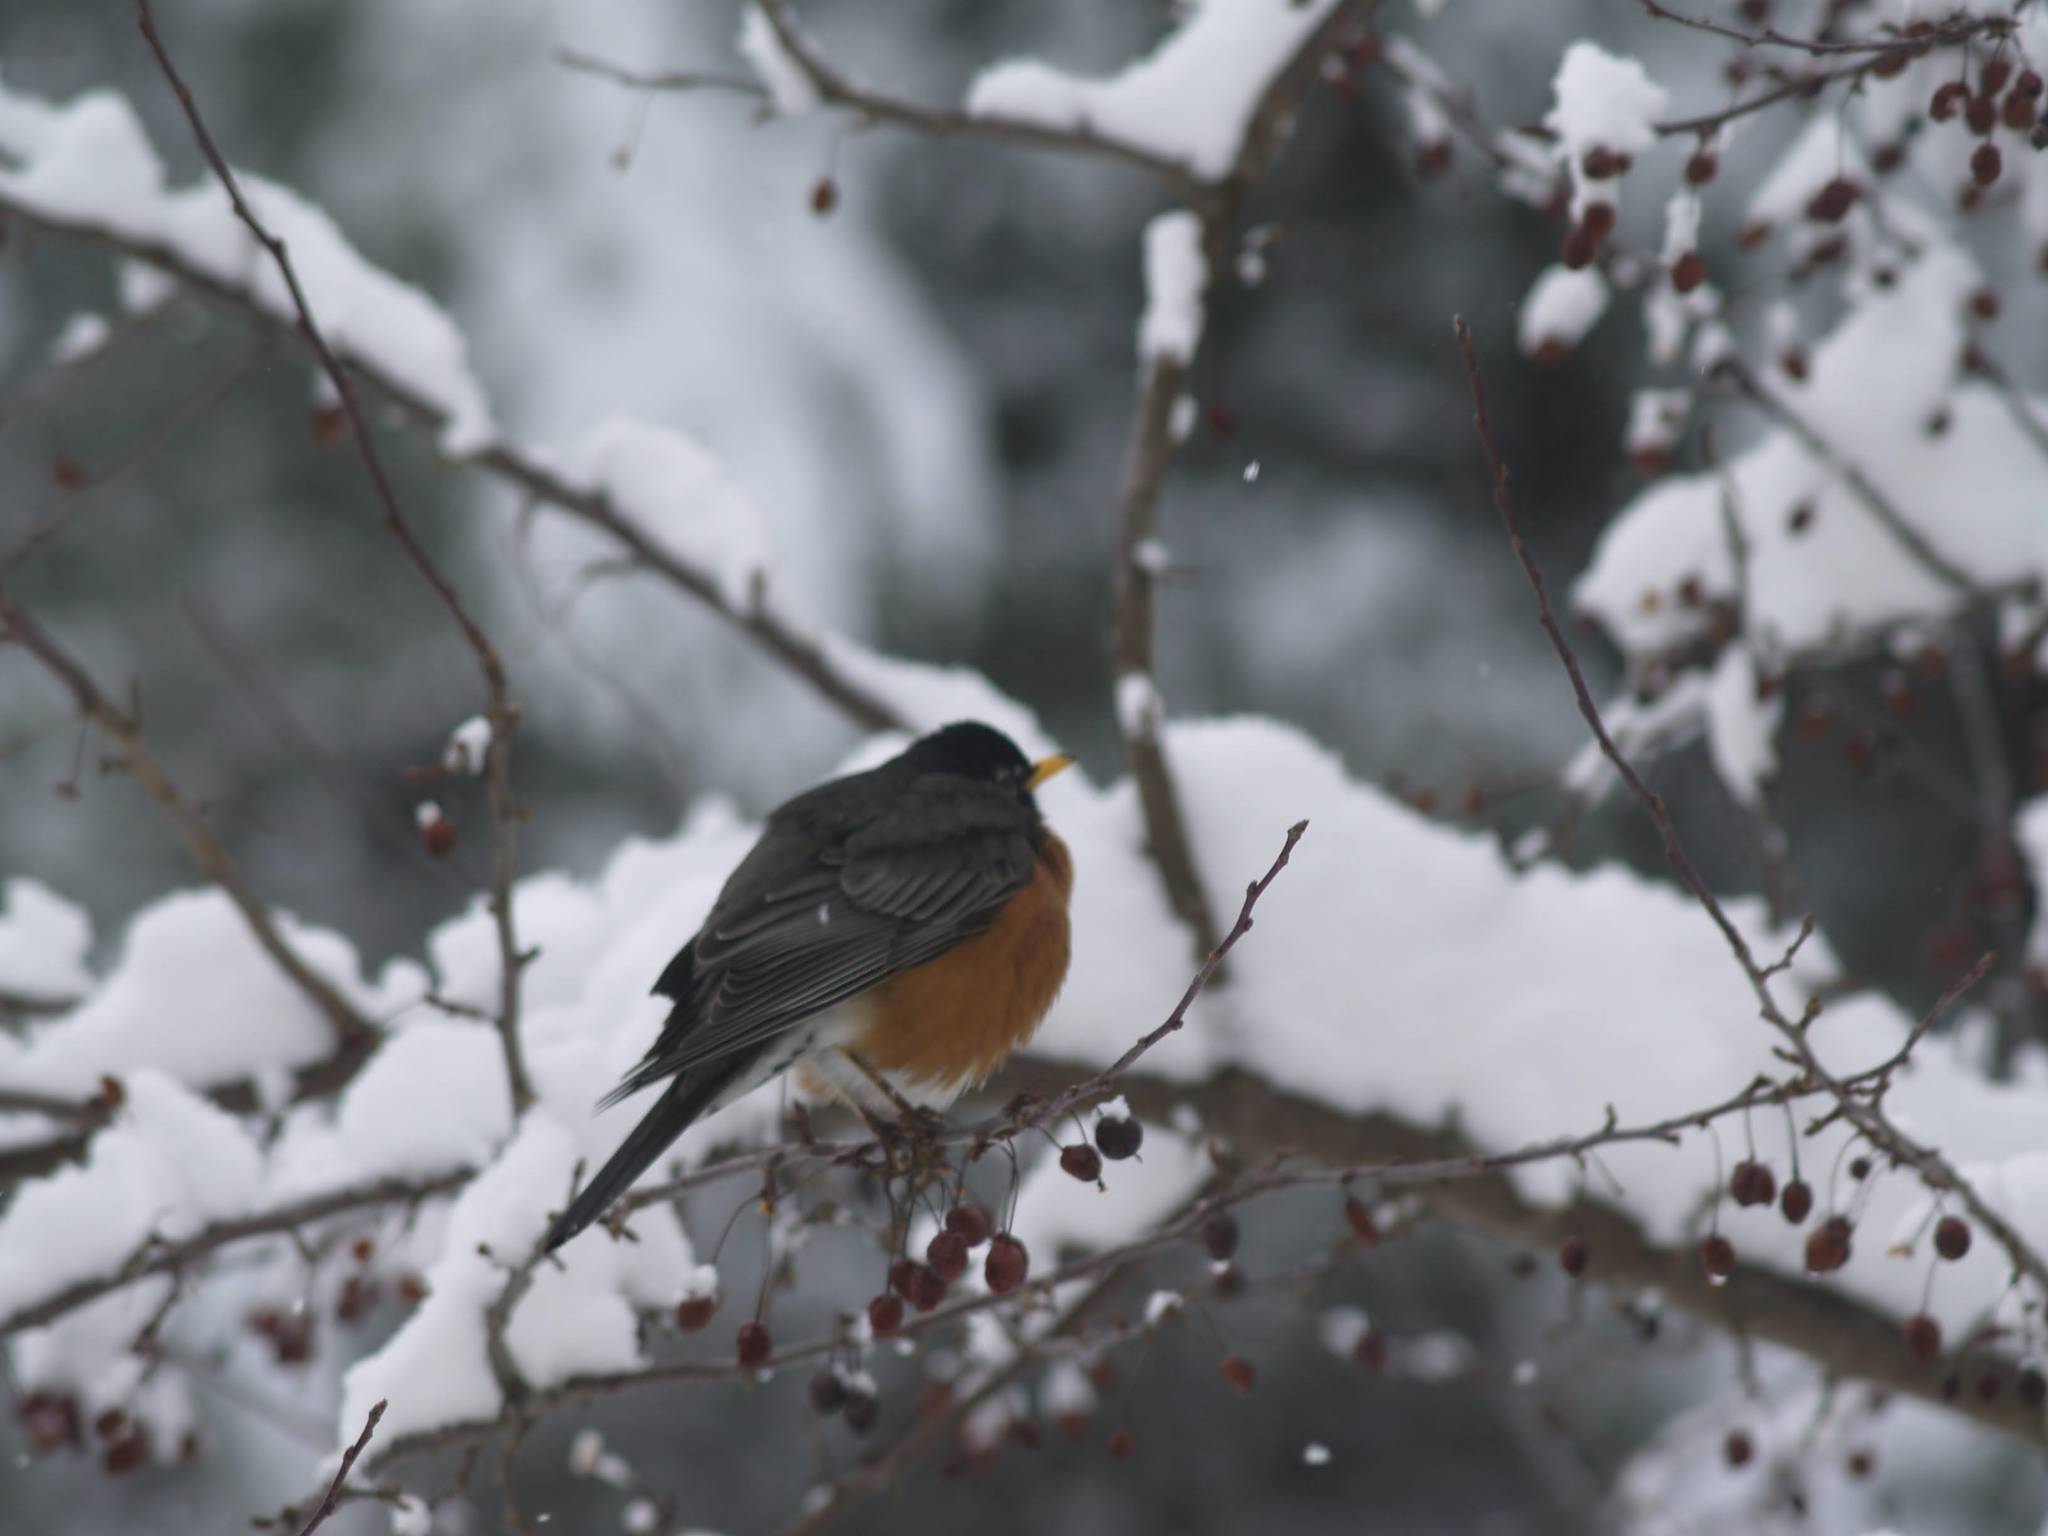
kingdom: Animalia
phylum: Chordata
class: Aves
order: Passeriformes
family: Turdidae
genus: Turdus
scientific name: Turdus migratorius
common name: American robin
